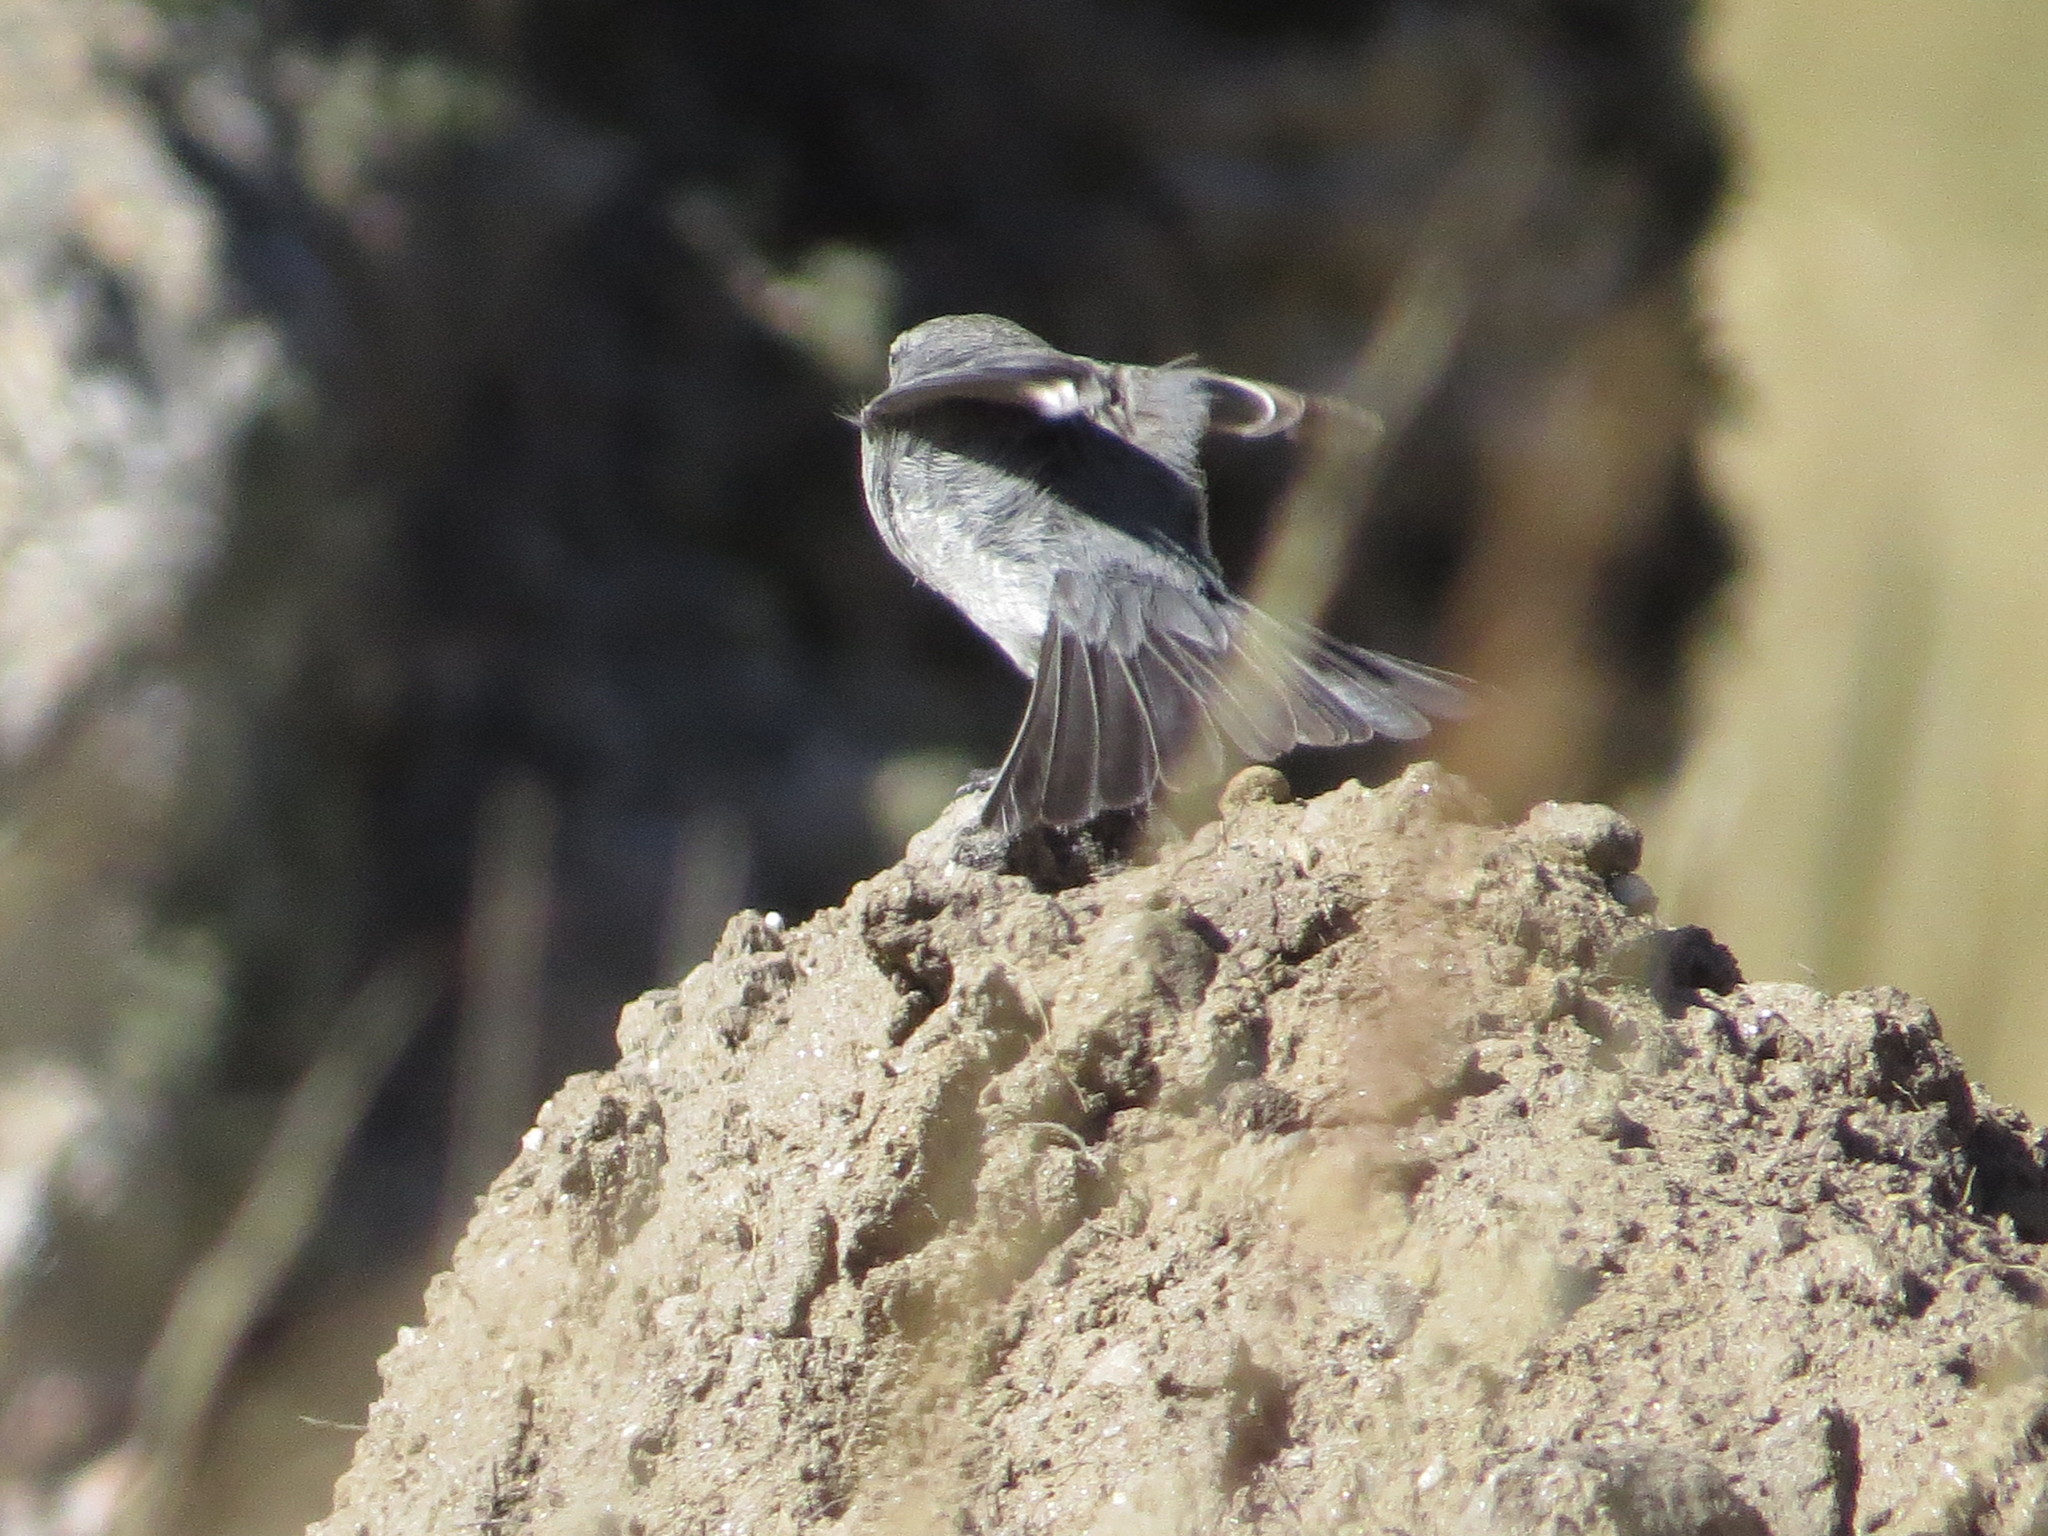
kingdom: Animalia
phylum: Chordata
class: Aves
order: Passeriformes
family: Thraupidae
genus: Geospizopsis
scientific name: Geospizopsis plebejus
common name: Ash-breasted sierra-finch
